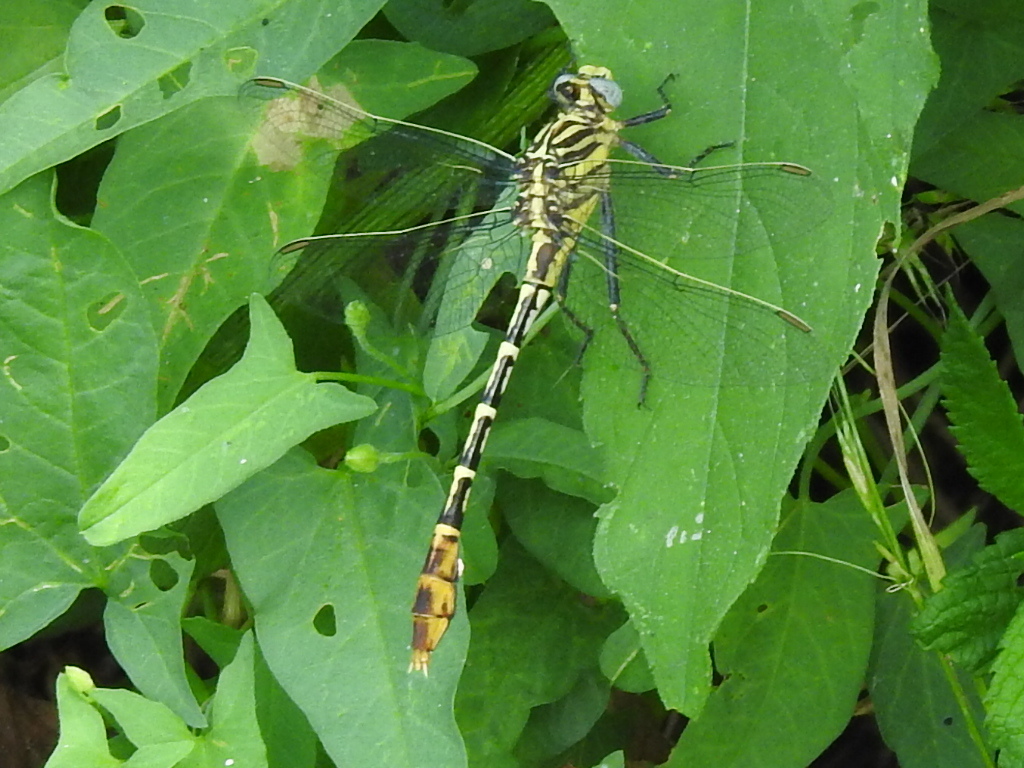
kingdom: Animalia
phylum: Arthropoda
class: Insecta
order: Odonata
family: Gomphidae
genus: Dromogomphus
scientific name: Dromogomphus spoliatus
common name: Flag-tailed spinyleg
